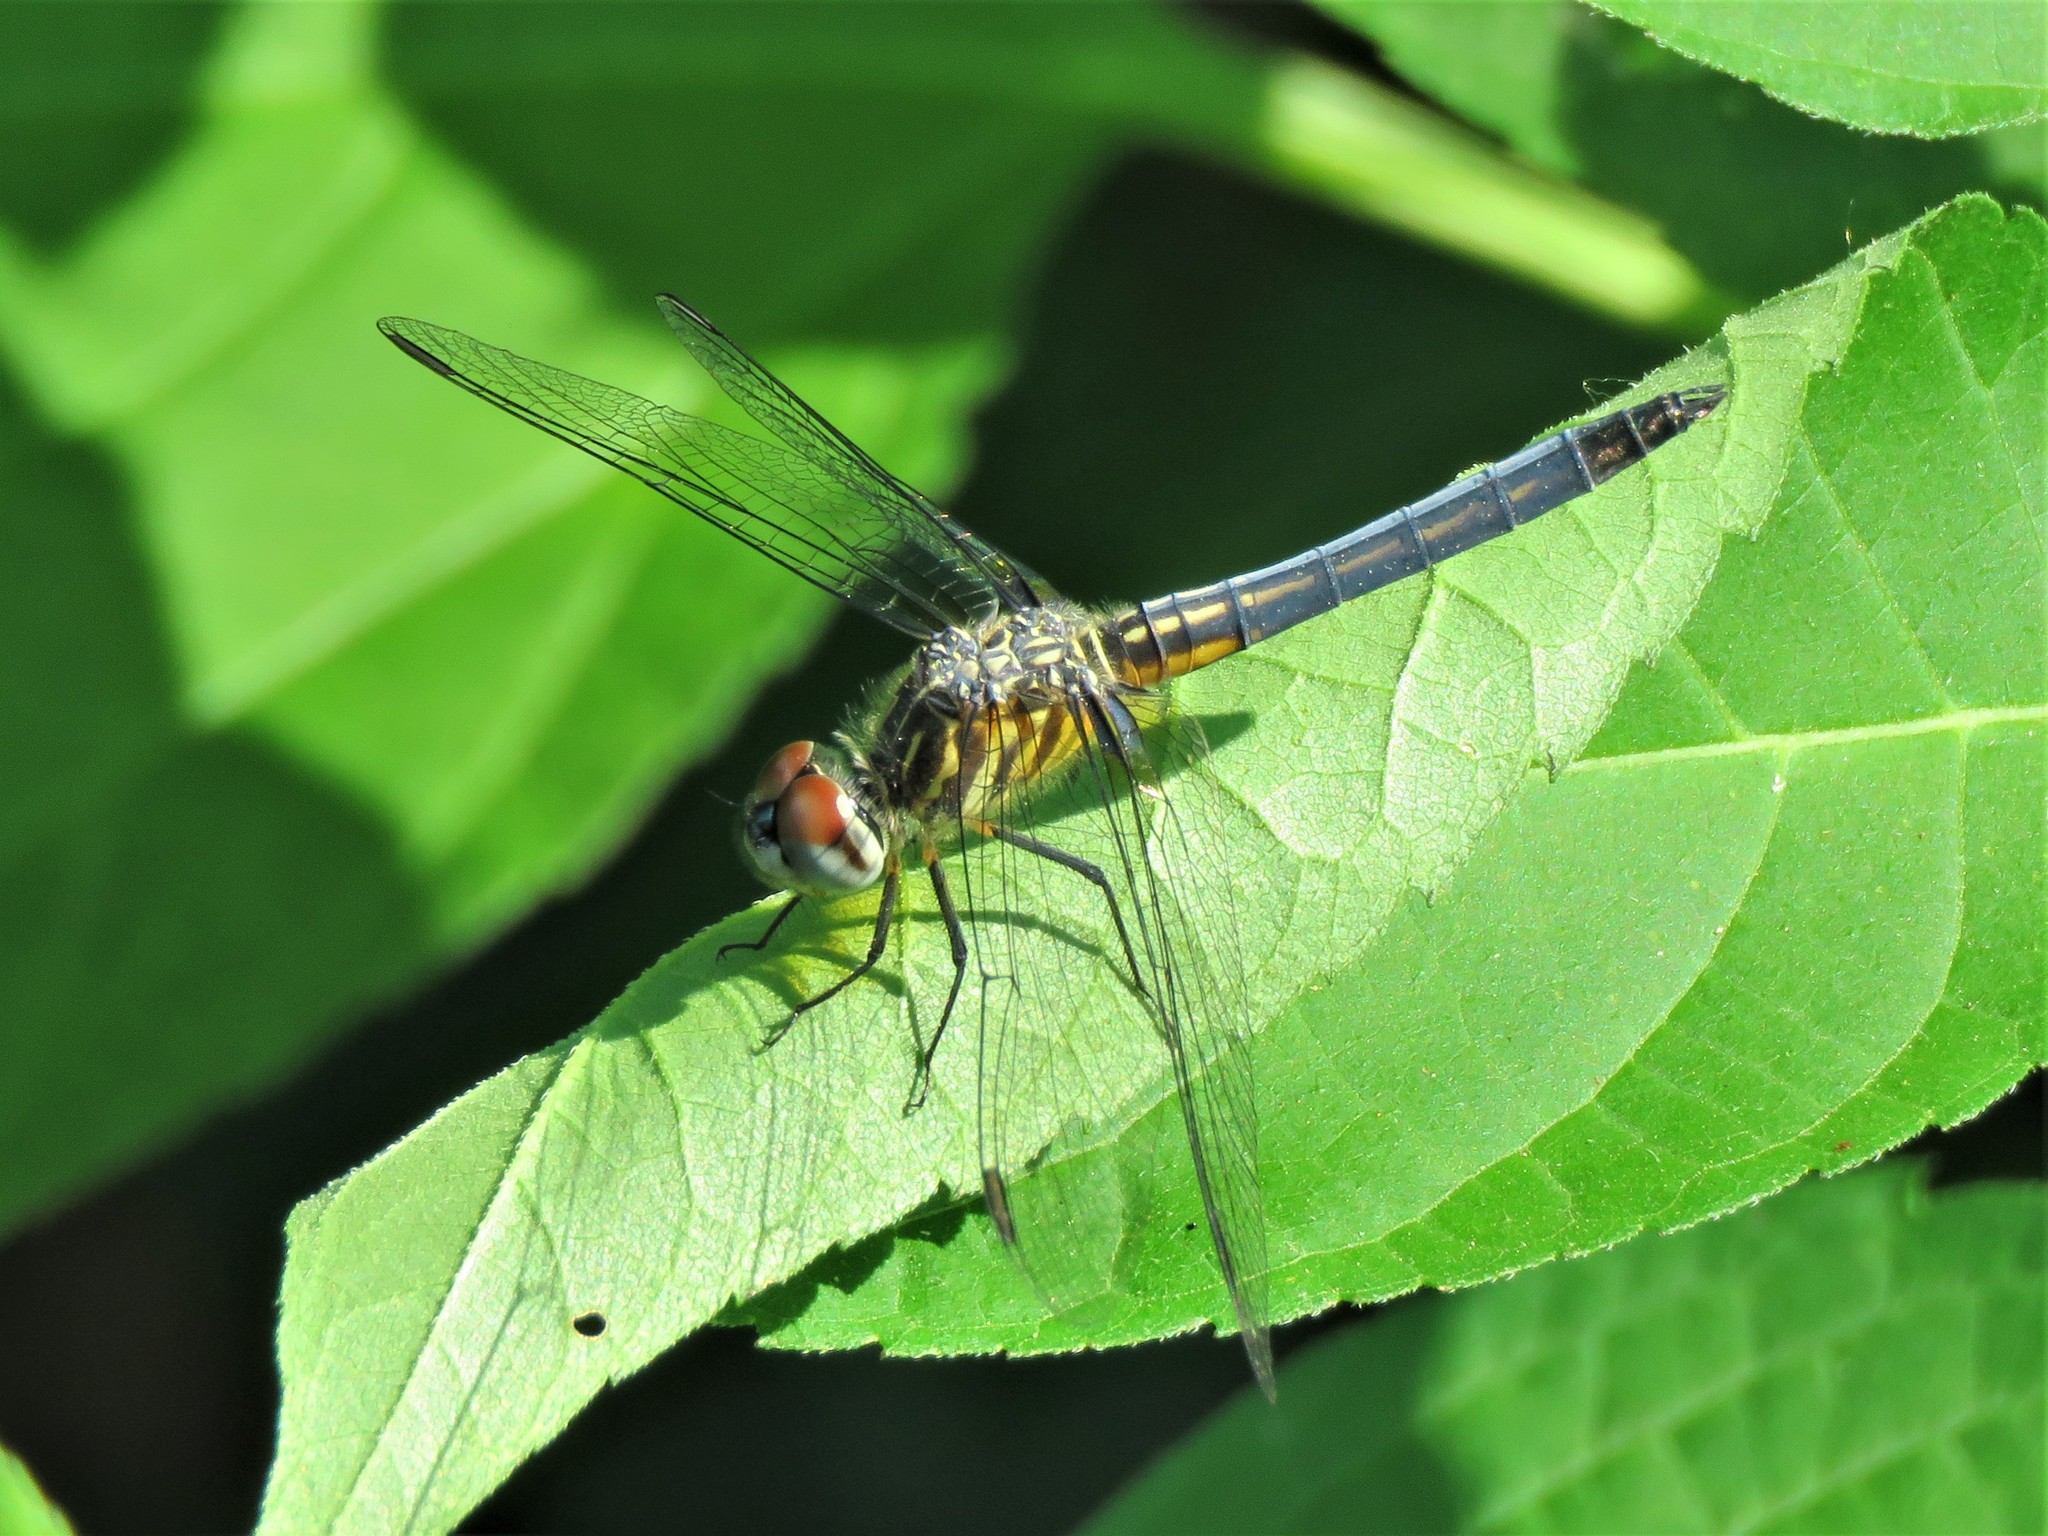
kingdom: Animalia
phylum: Arthropoda
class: Insecta
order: Odonata
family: Libellulidae
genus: Pachydiplax
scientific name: Pachydiplax longipennis
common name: Blue dasher
